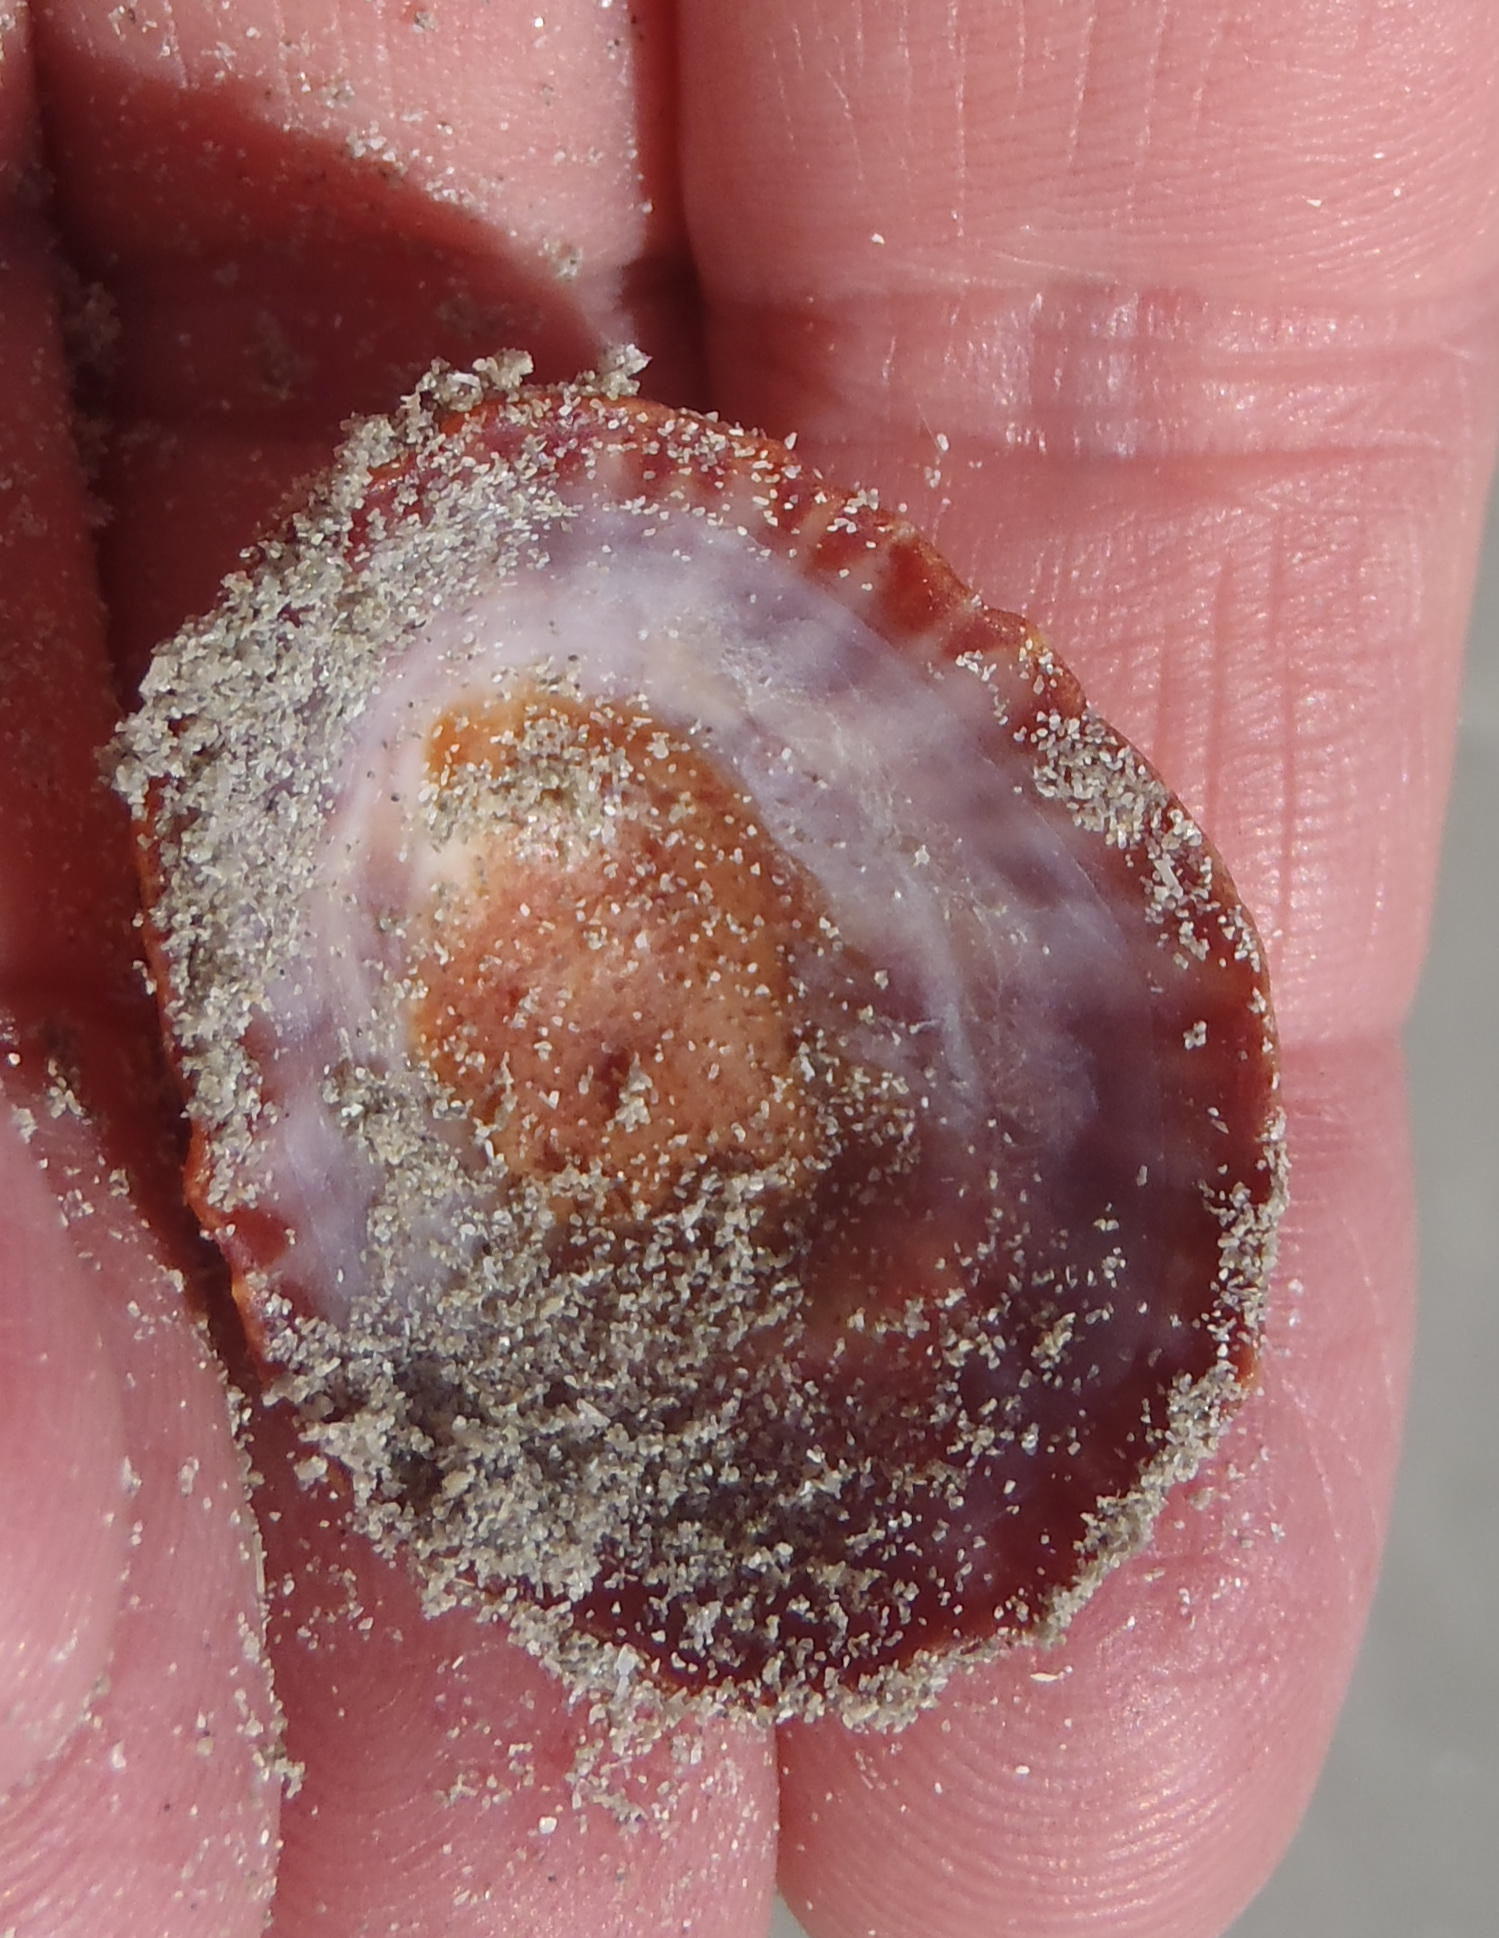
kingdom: Animalia
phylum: Mollusca
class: Gastropoda
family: Patellidae
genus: Scutellastra
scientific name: Scutellastra granularis
